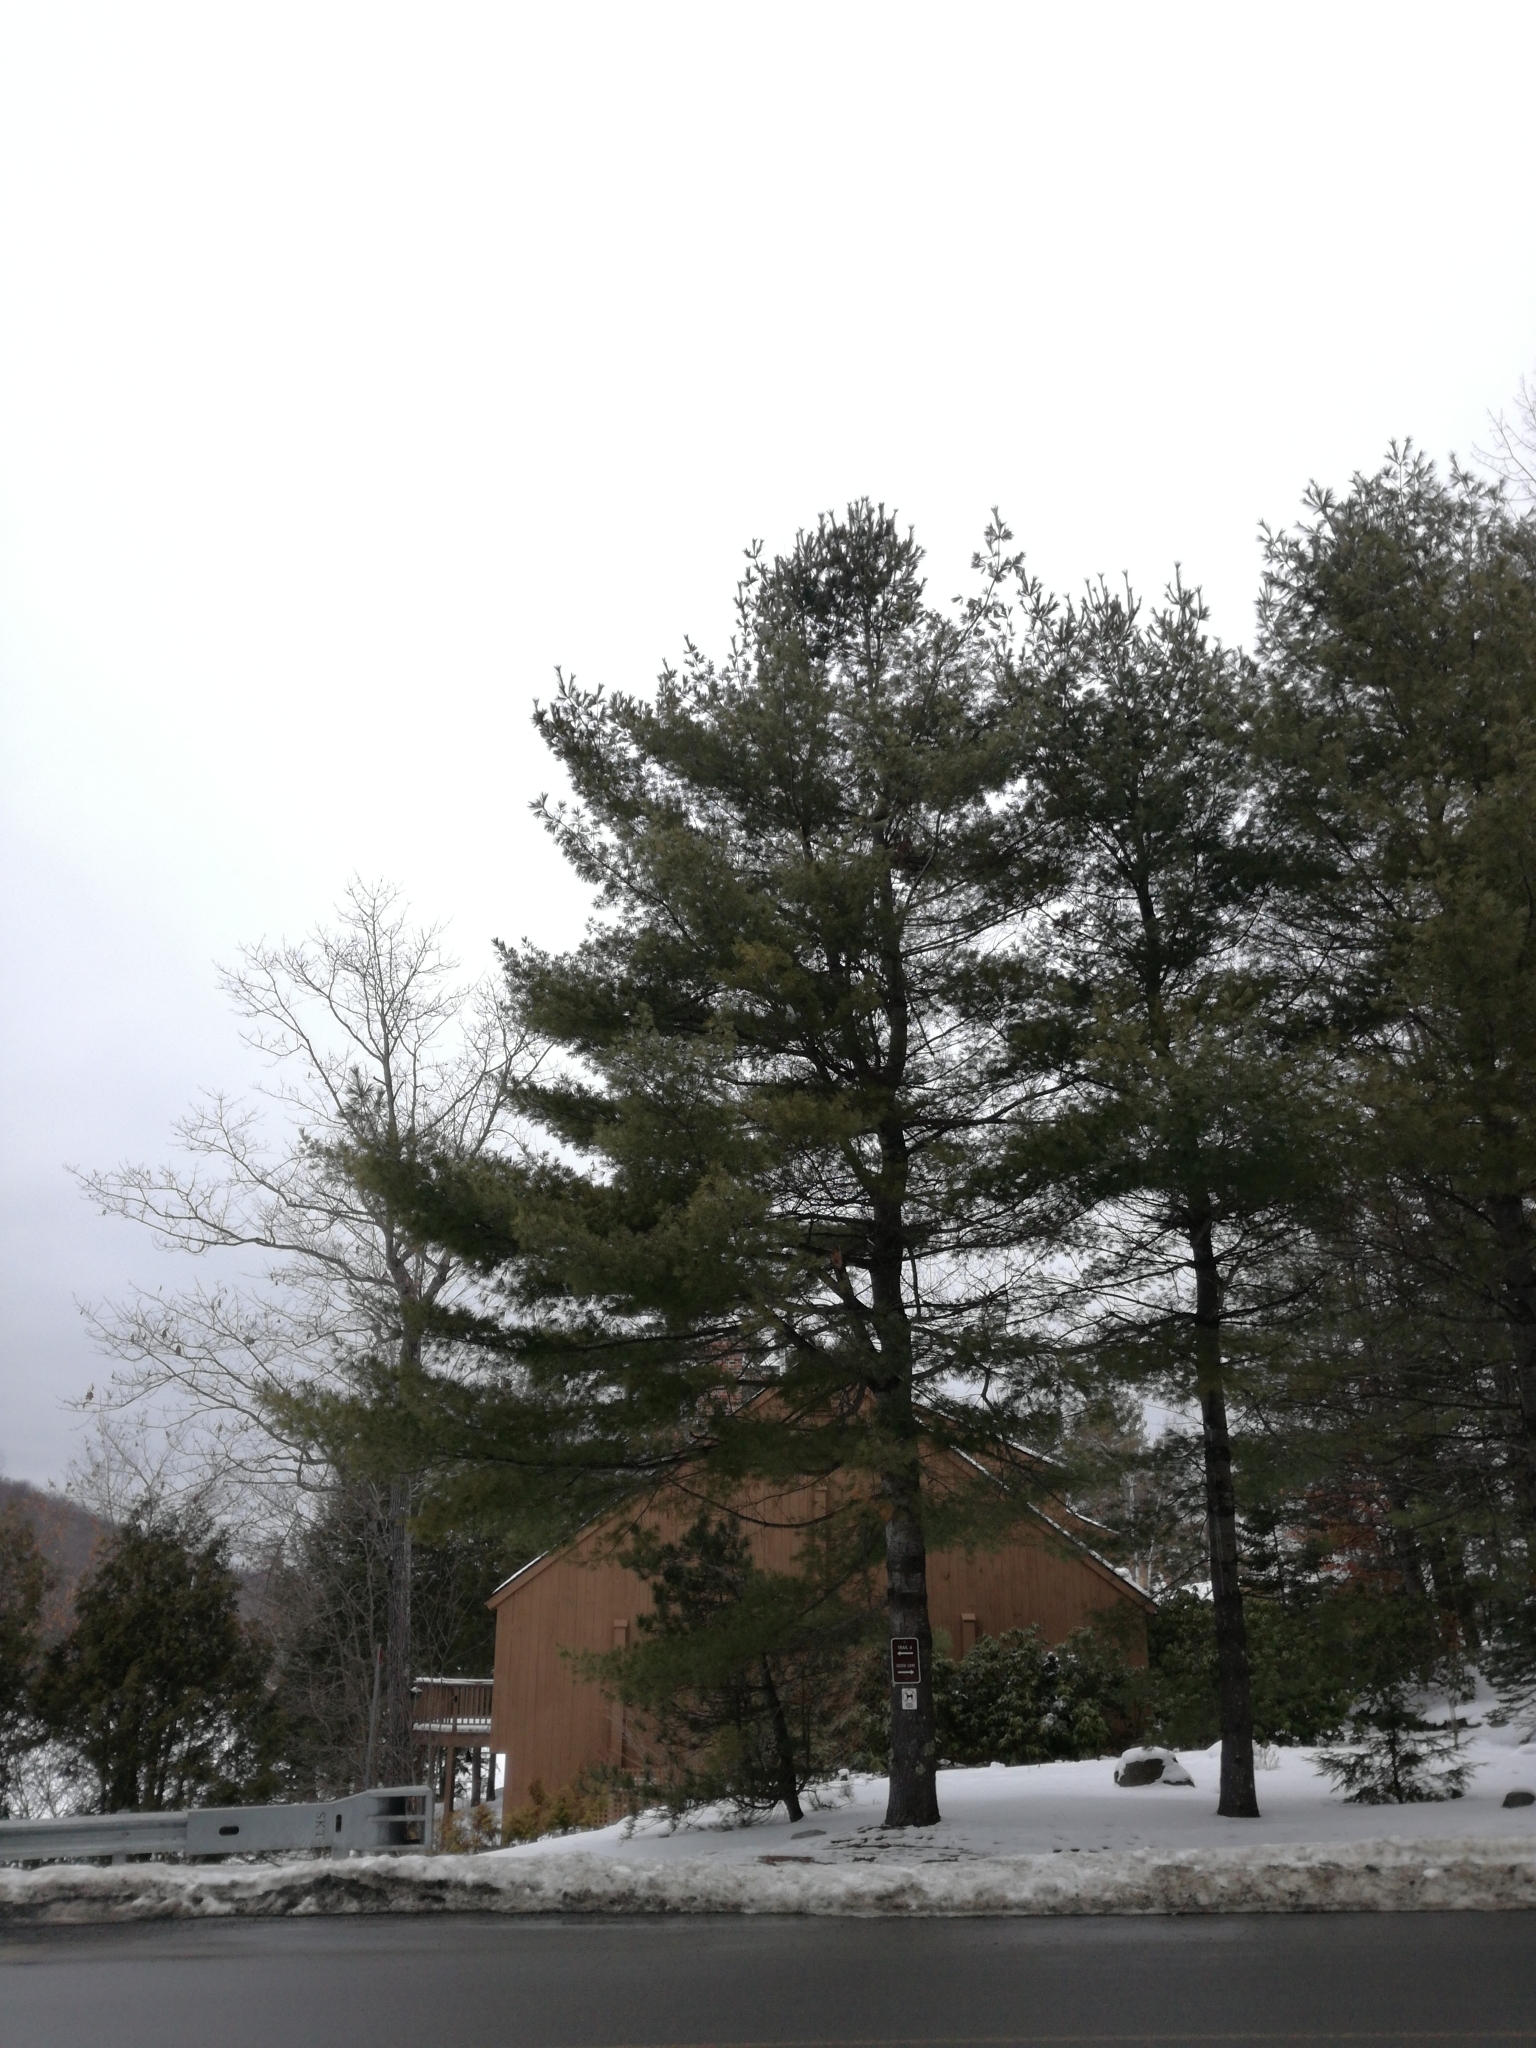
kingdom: Plantae
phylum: Tracheophyta
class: Pinopsida
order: Pinales
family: Pinaceae
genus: Pinus
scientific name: Pinus strobus
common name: Weymouth pine
